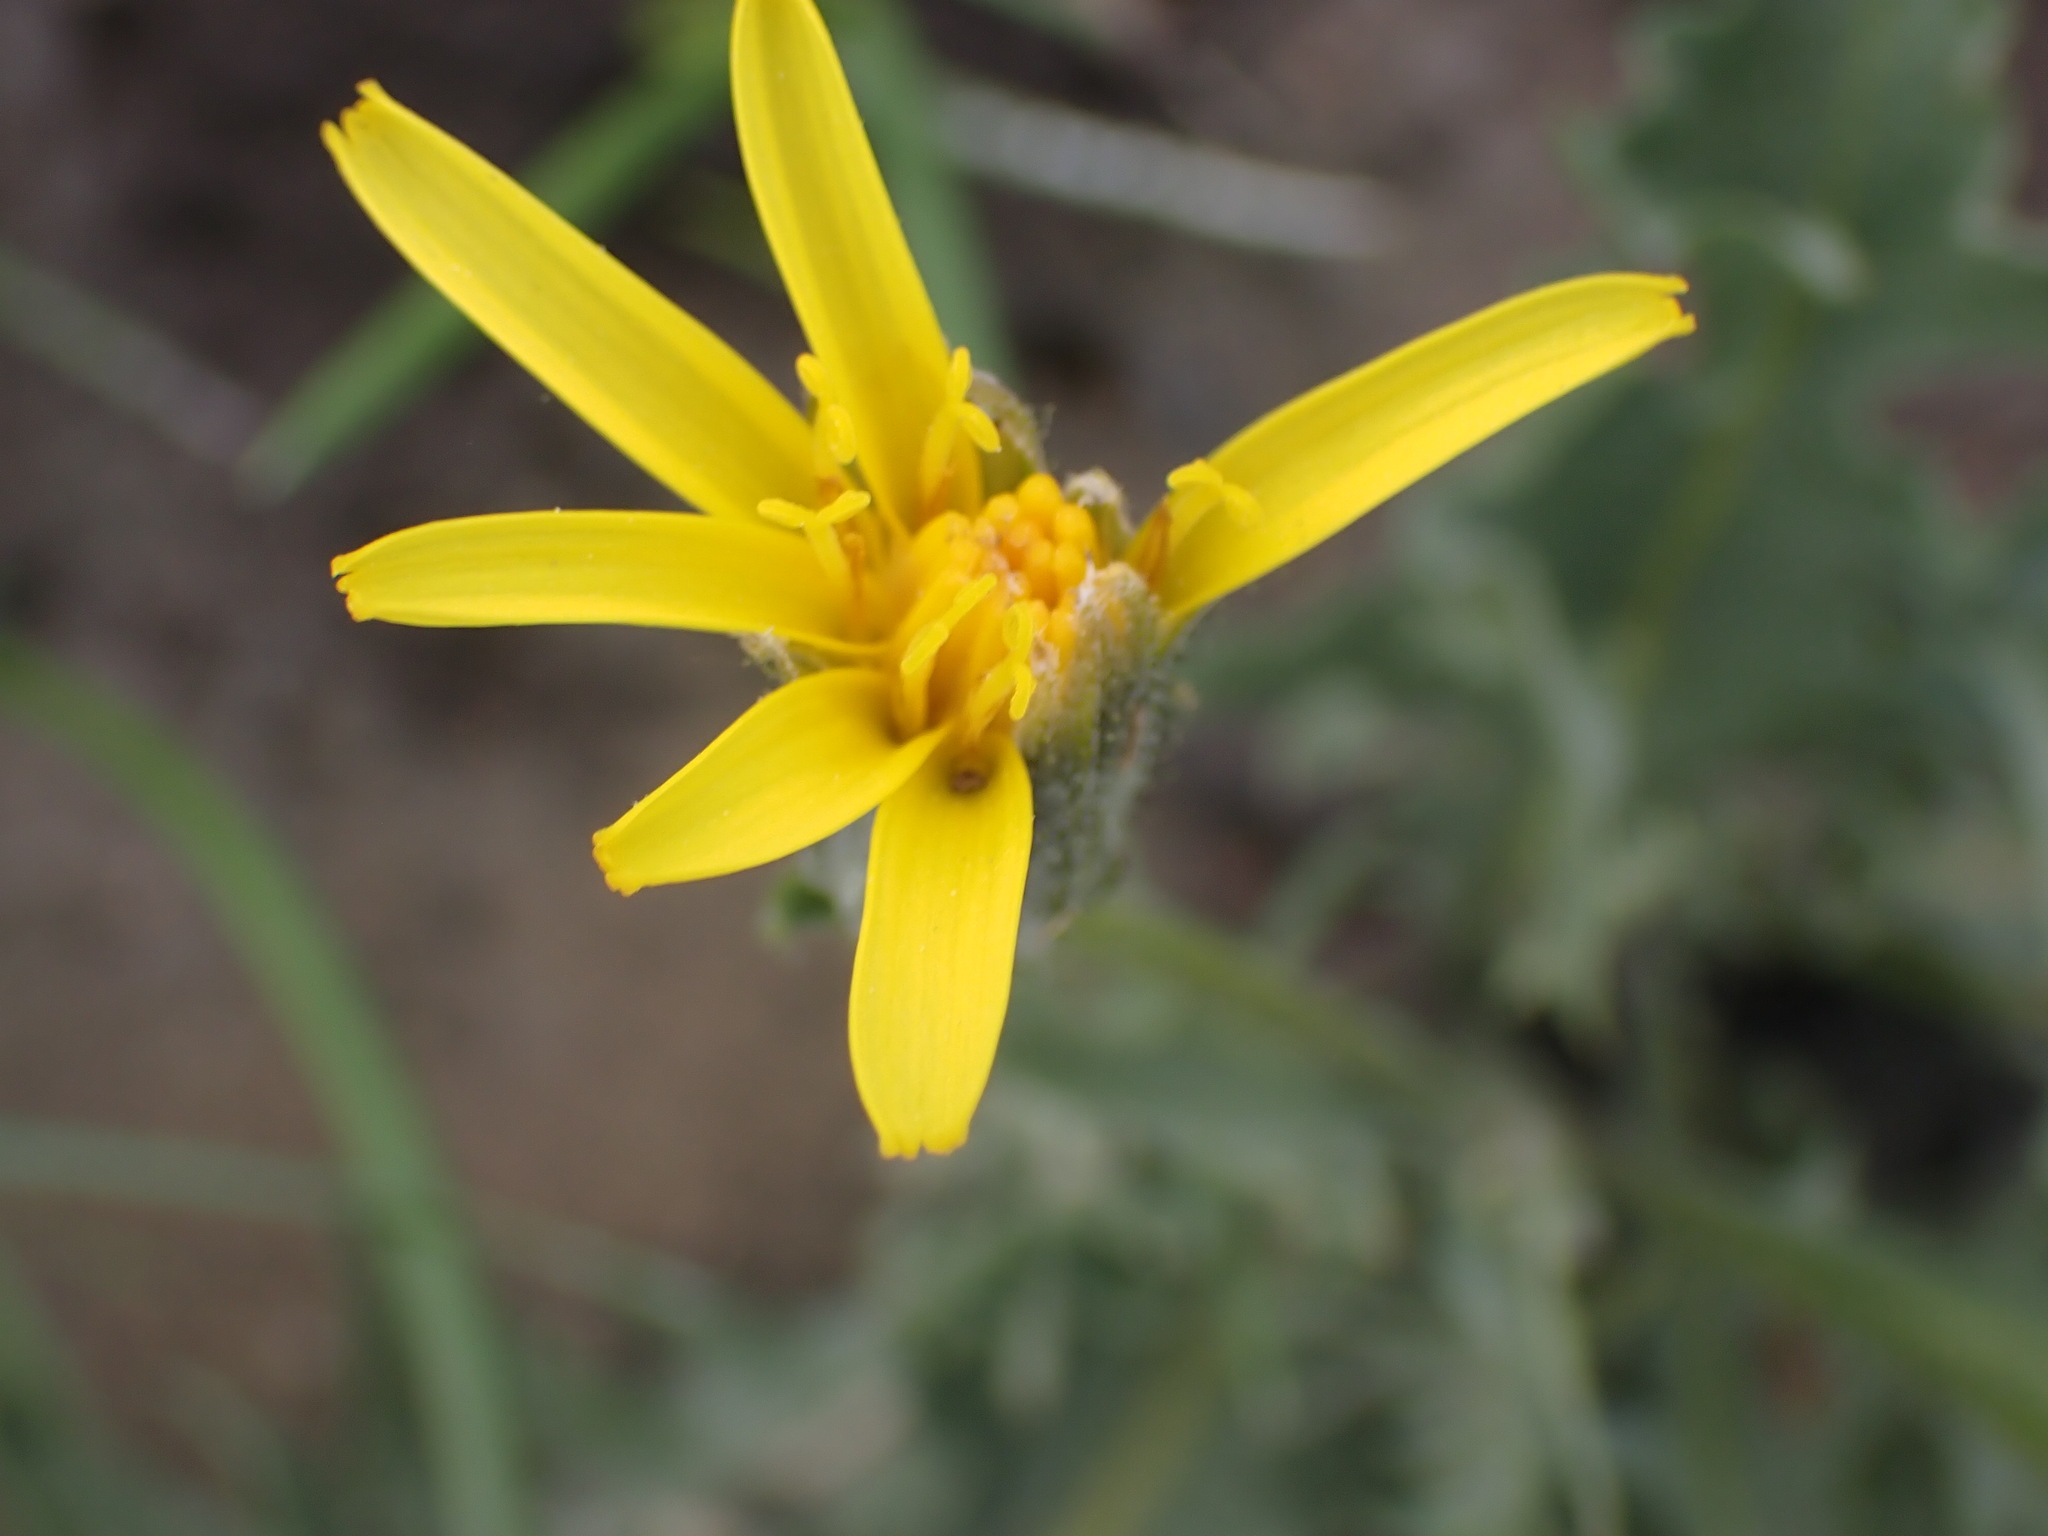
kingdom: Plantae
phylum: Tracheophyta
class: Magnoliopsida
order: Asterales
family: Asteraceae
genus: Crepis
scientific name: Crepis occidentalis
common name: Gray hawk's-beard
